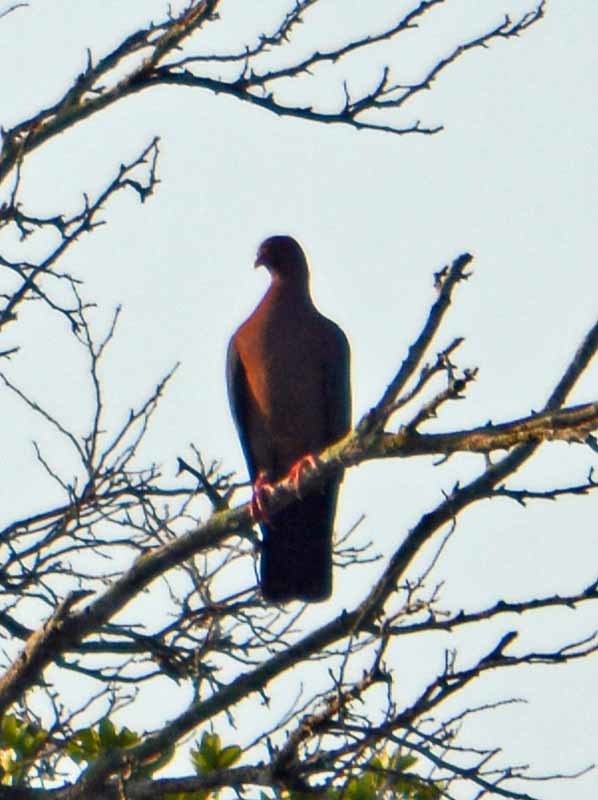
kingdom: Animalia
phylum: Chordata
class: Aves
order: Columbiformes
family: Columbidae
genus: Patagioenas
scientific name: Patagioenas flavirostris
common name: Red-billed pigeon
